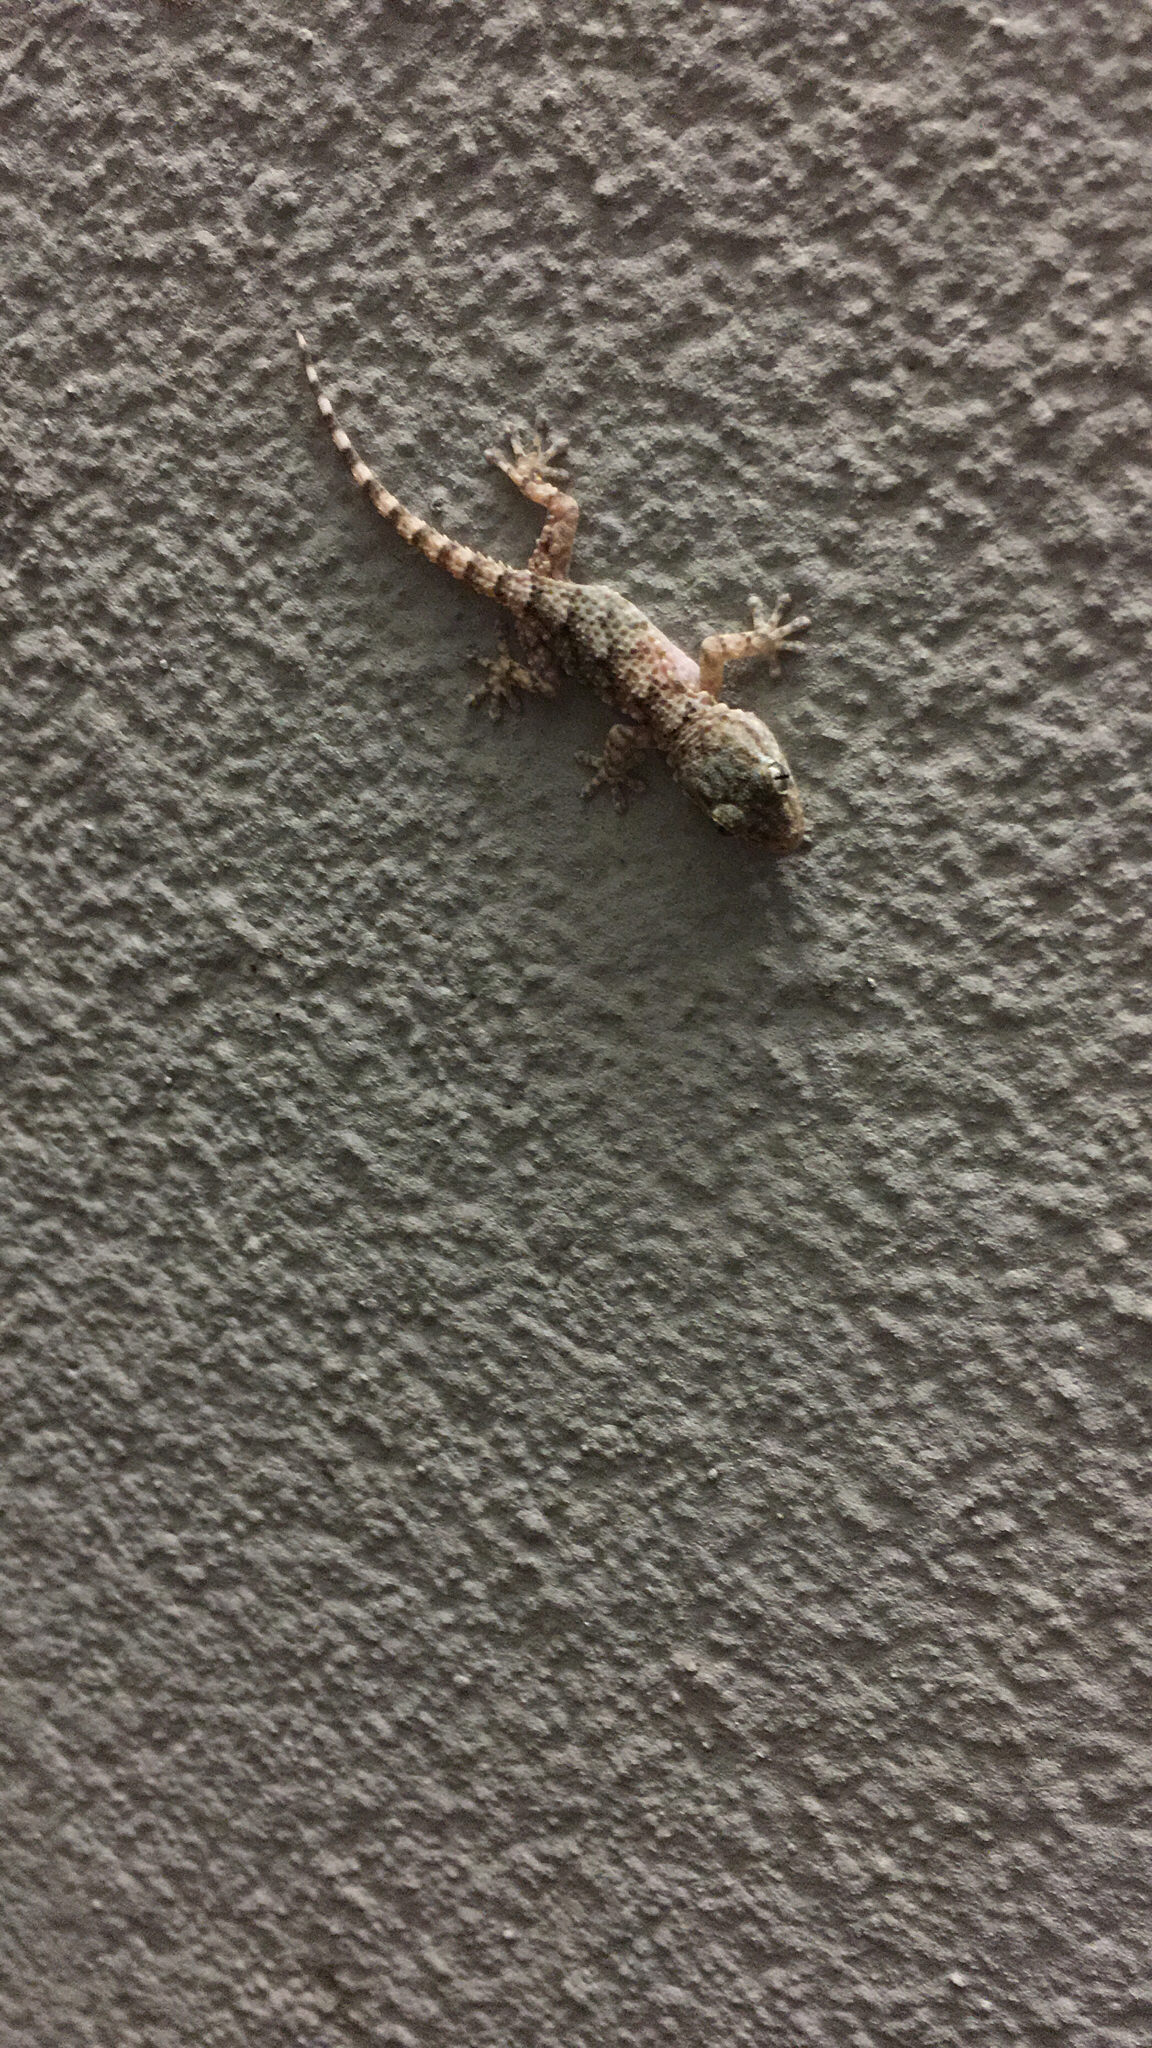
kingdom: Animalia
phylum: Chordata
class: Squamata
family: Phyllodactylidae
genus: Tarentola
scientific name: Tarentola mauritanica
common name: Moorish gecko
